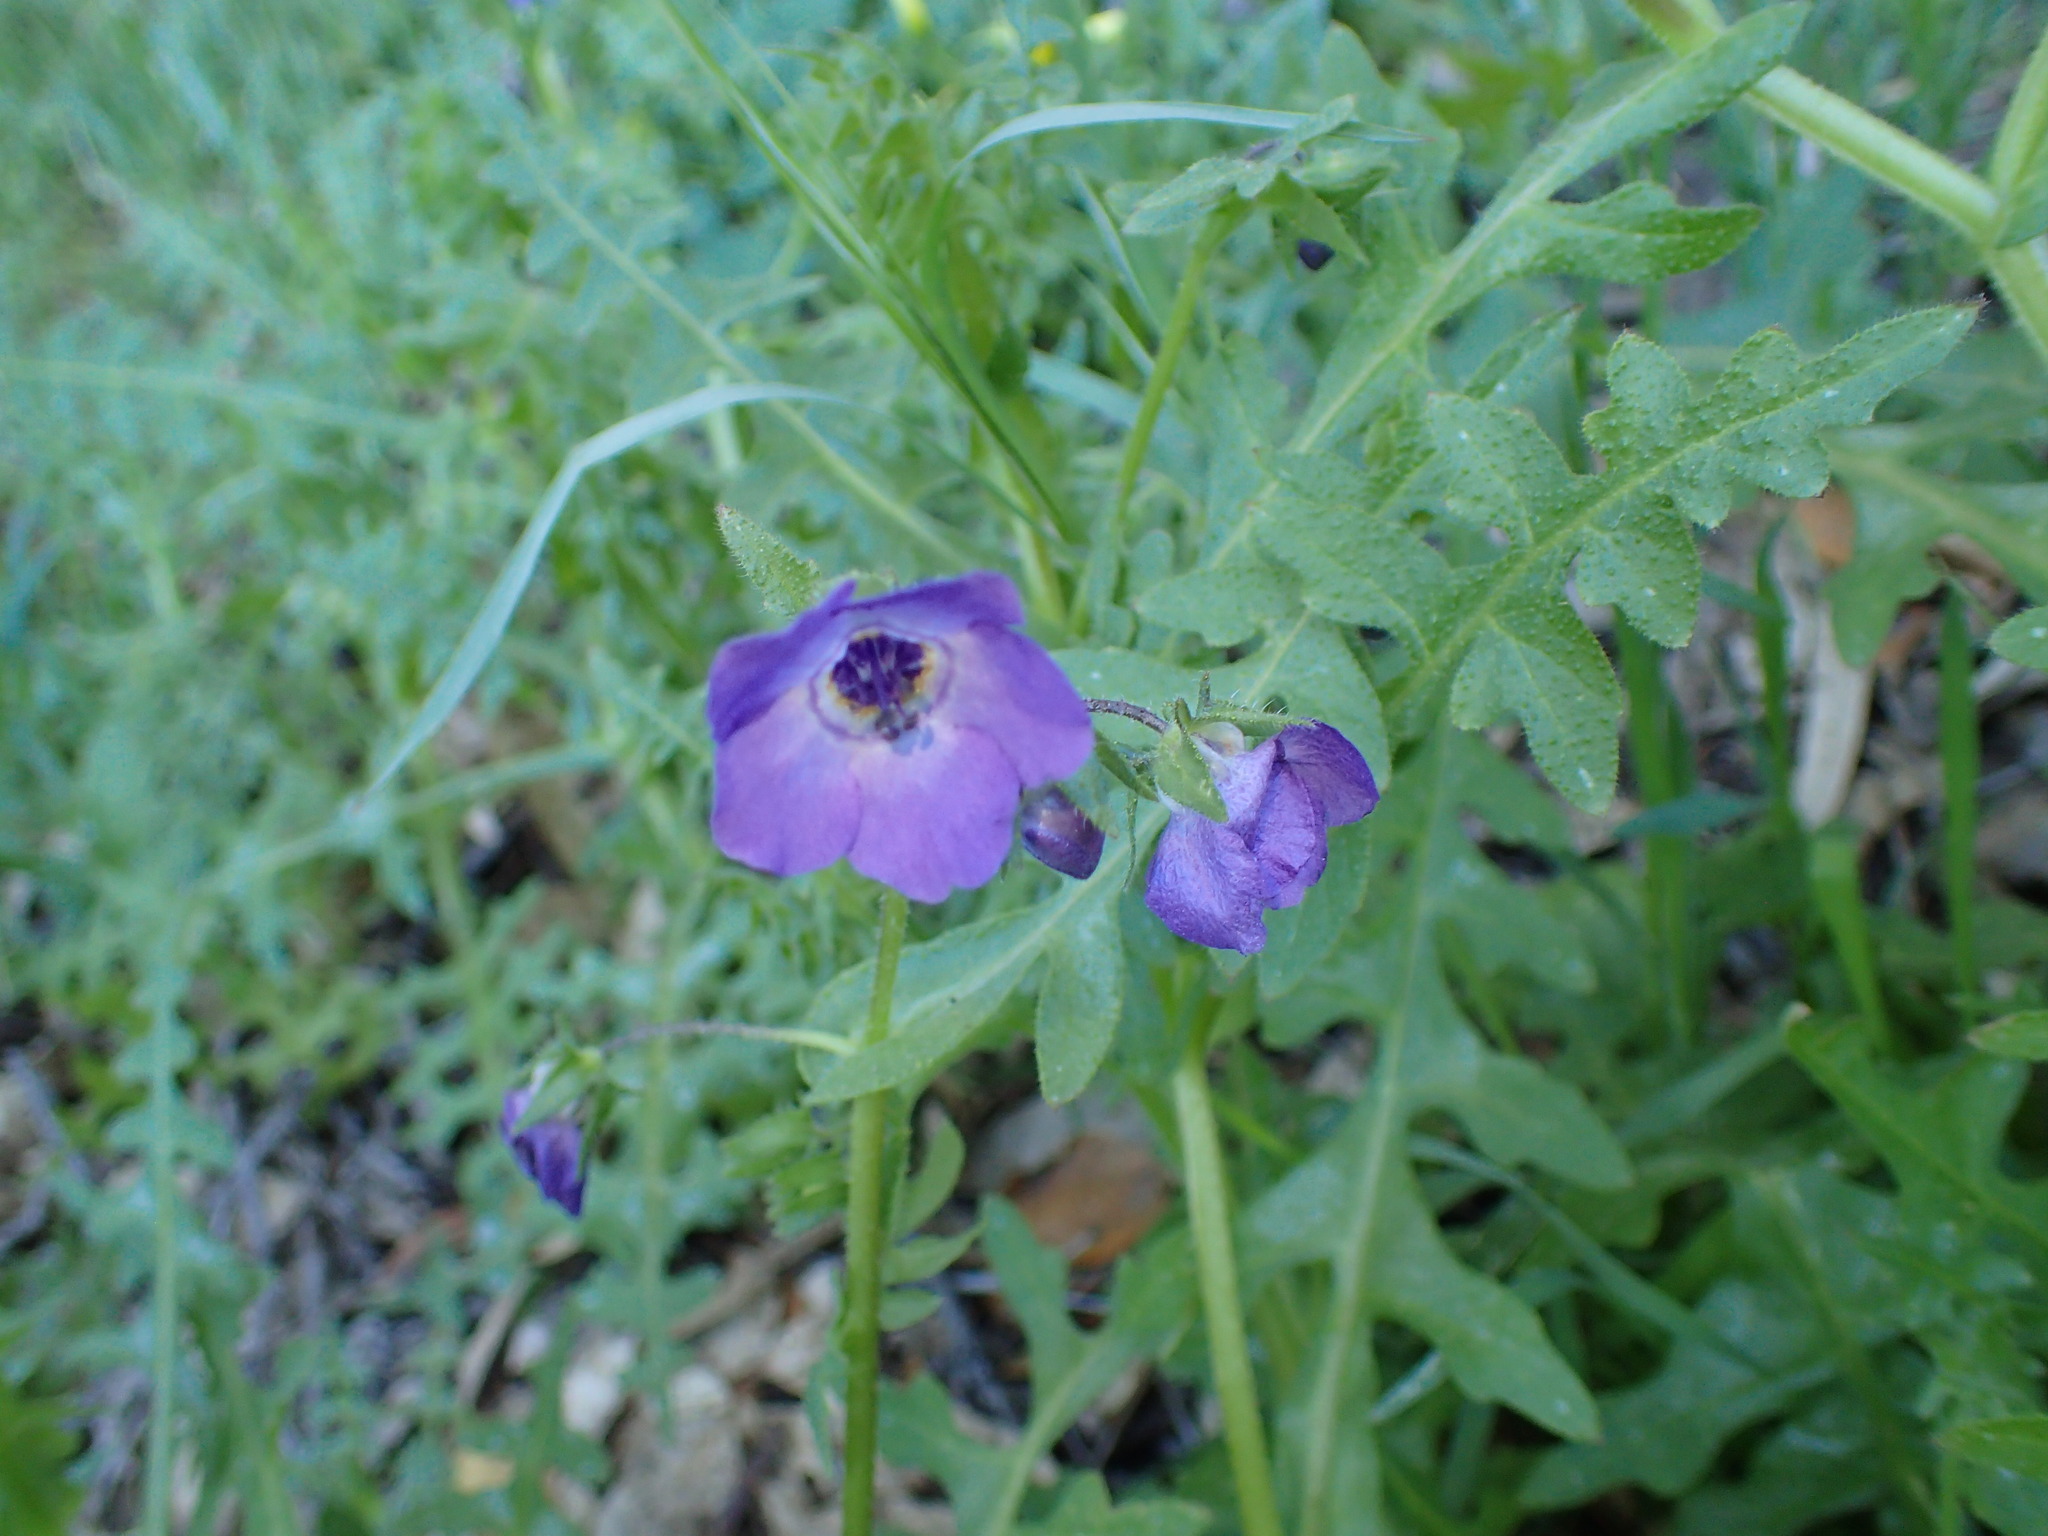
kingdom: Plantae
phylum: Tracheophyta
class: Magnoliopsida
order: Boraginales
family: Hydrophyllaceae
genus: Pholistoma
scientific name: Pholistoma auritum
